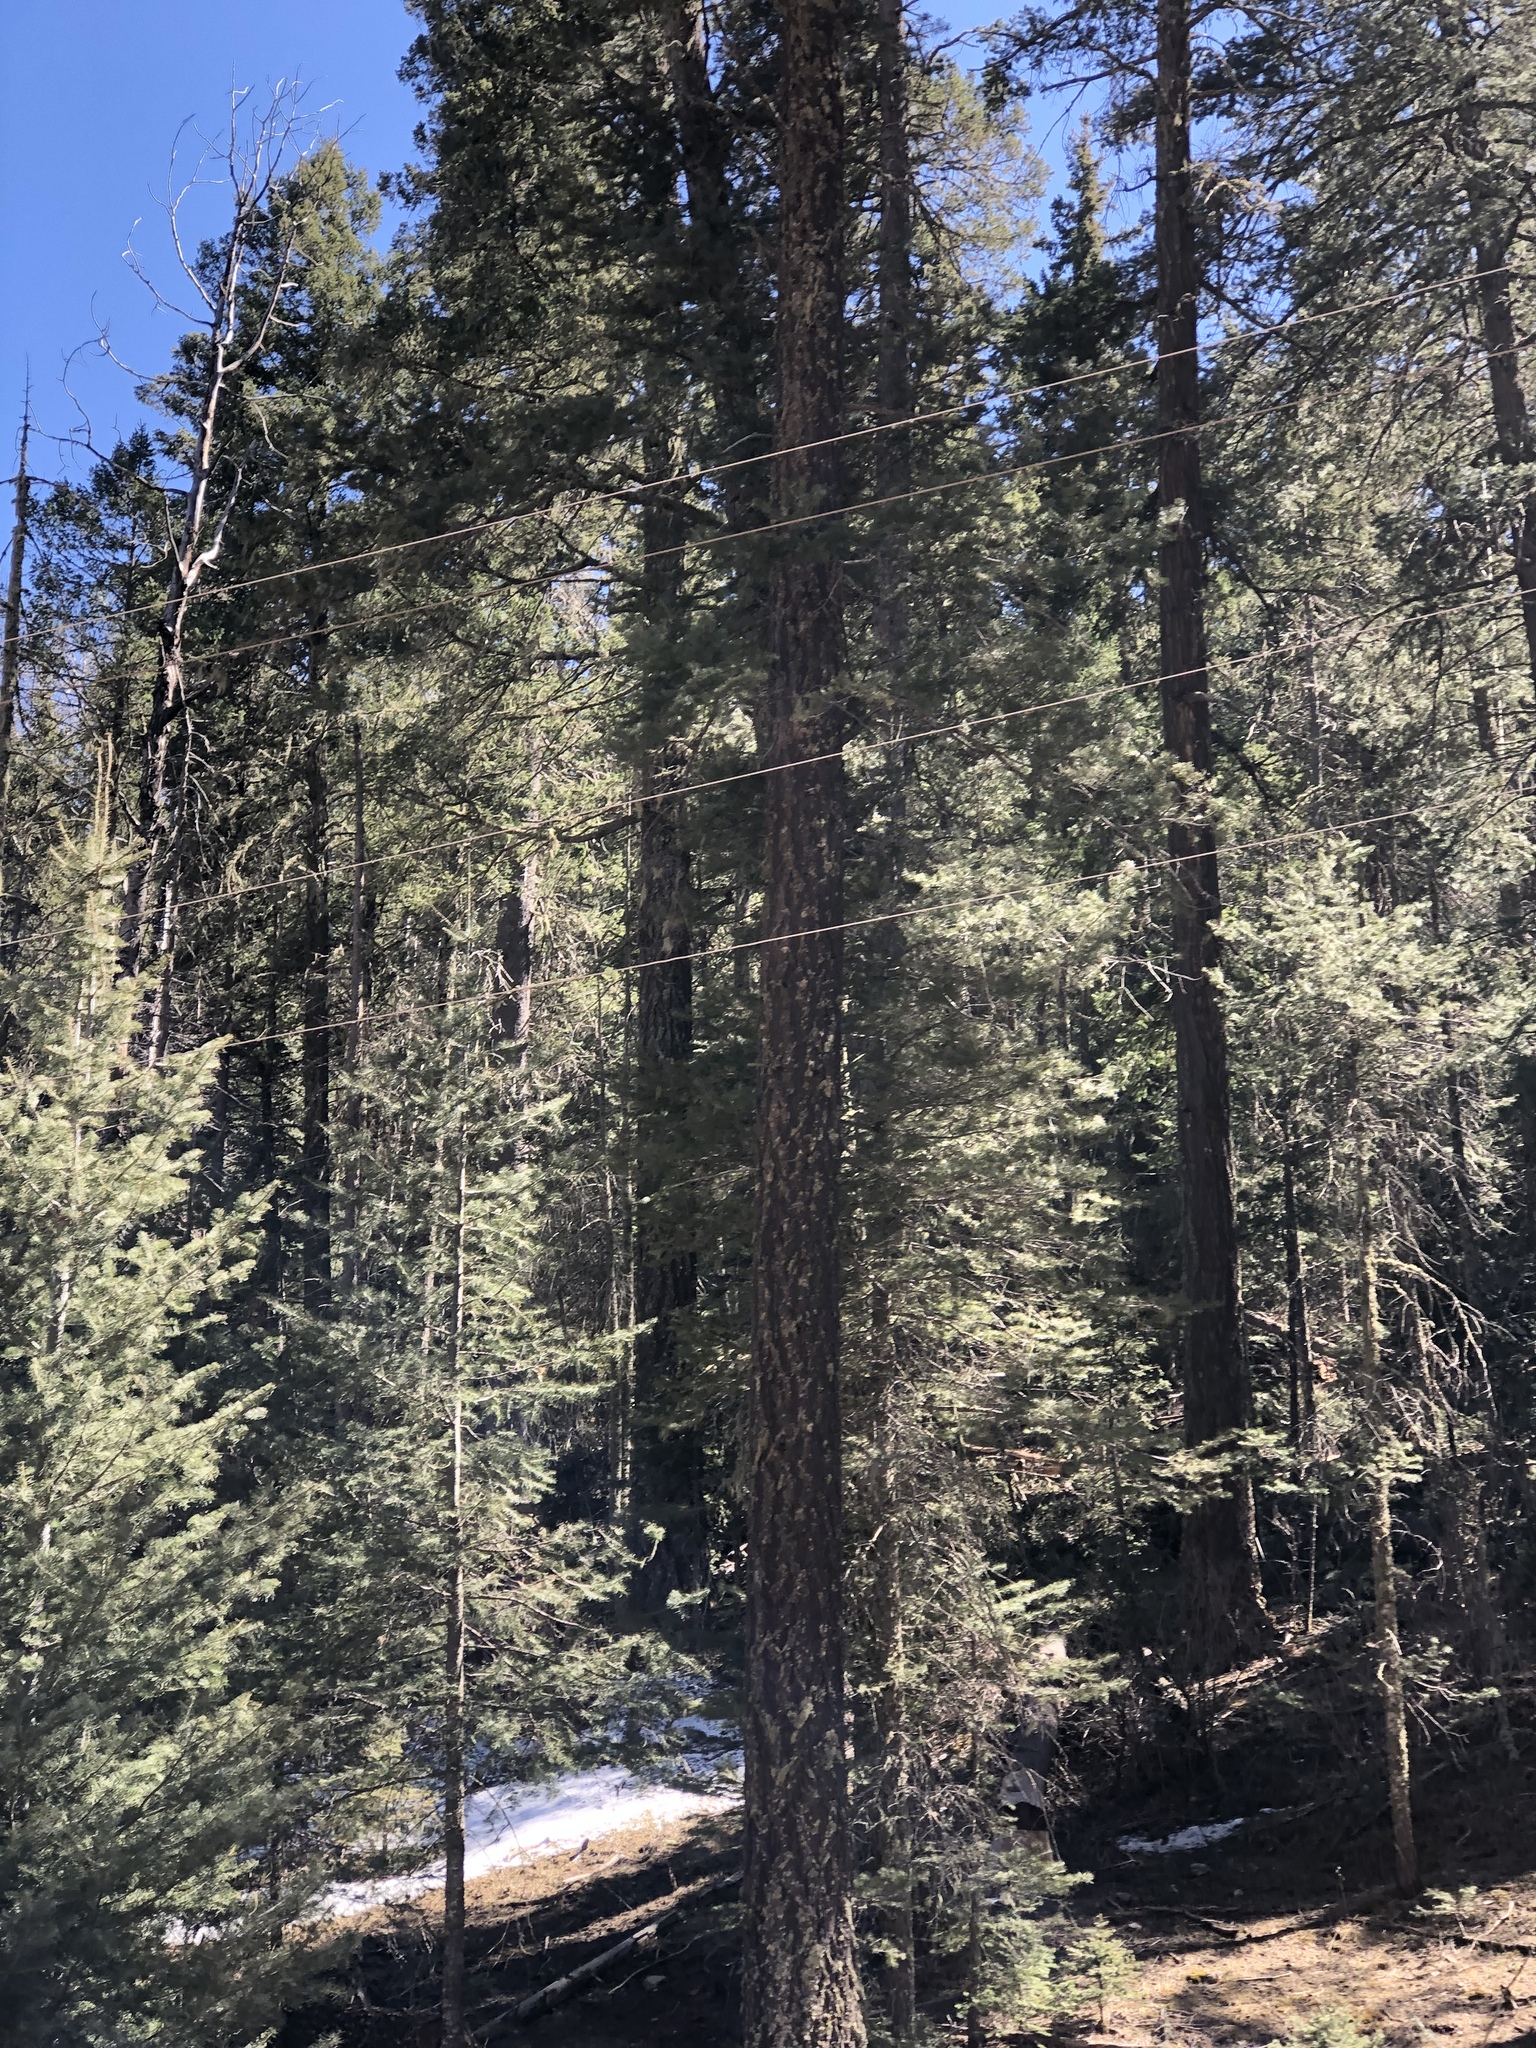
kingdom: Plantae
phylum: Tracheophyta
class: Pinopsida
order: Pinales
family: Pinaceae
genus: Pseudotsuga
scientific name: Pseudotsuga menziesii
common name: Douglas fir
